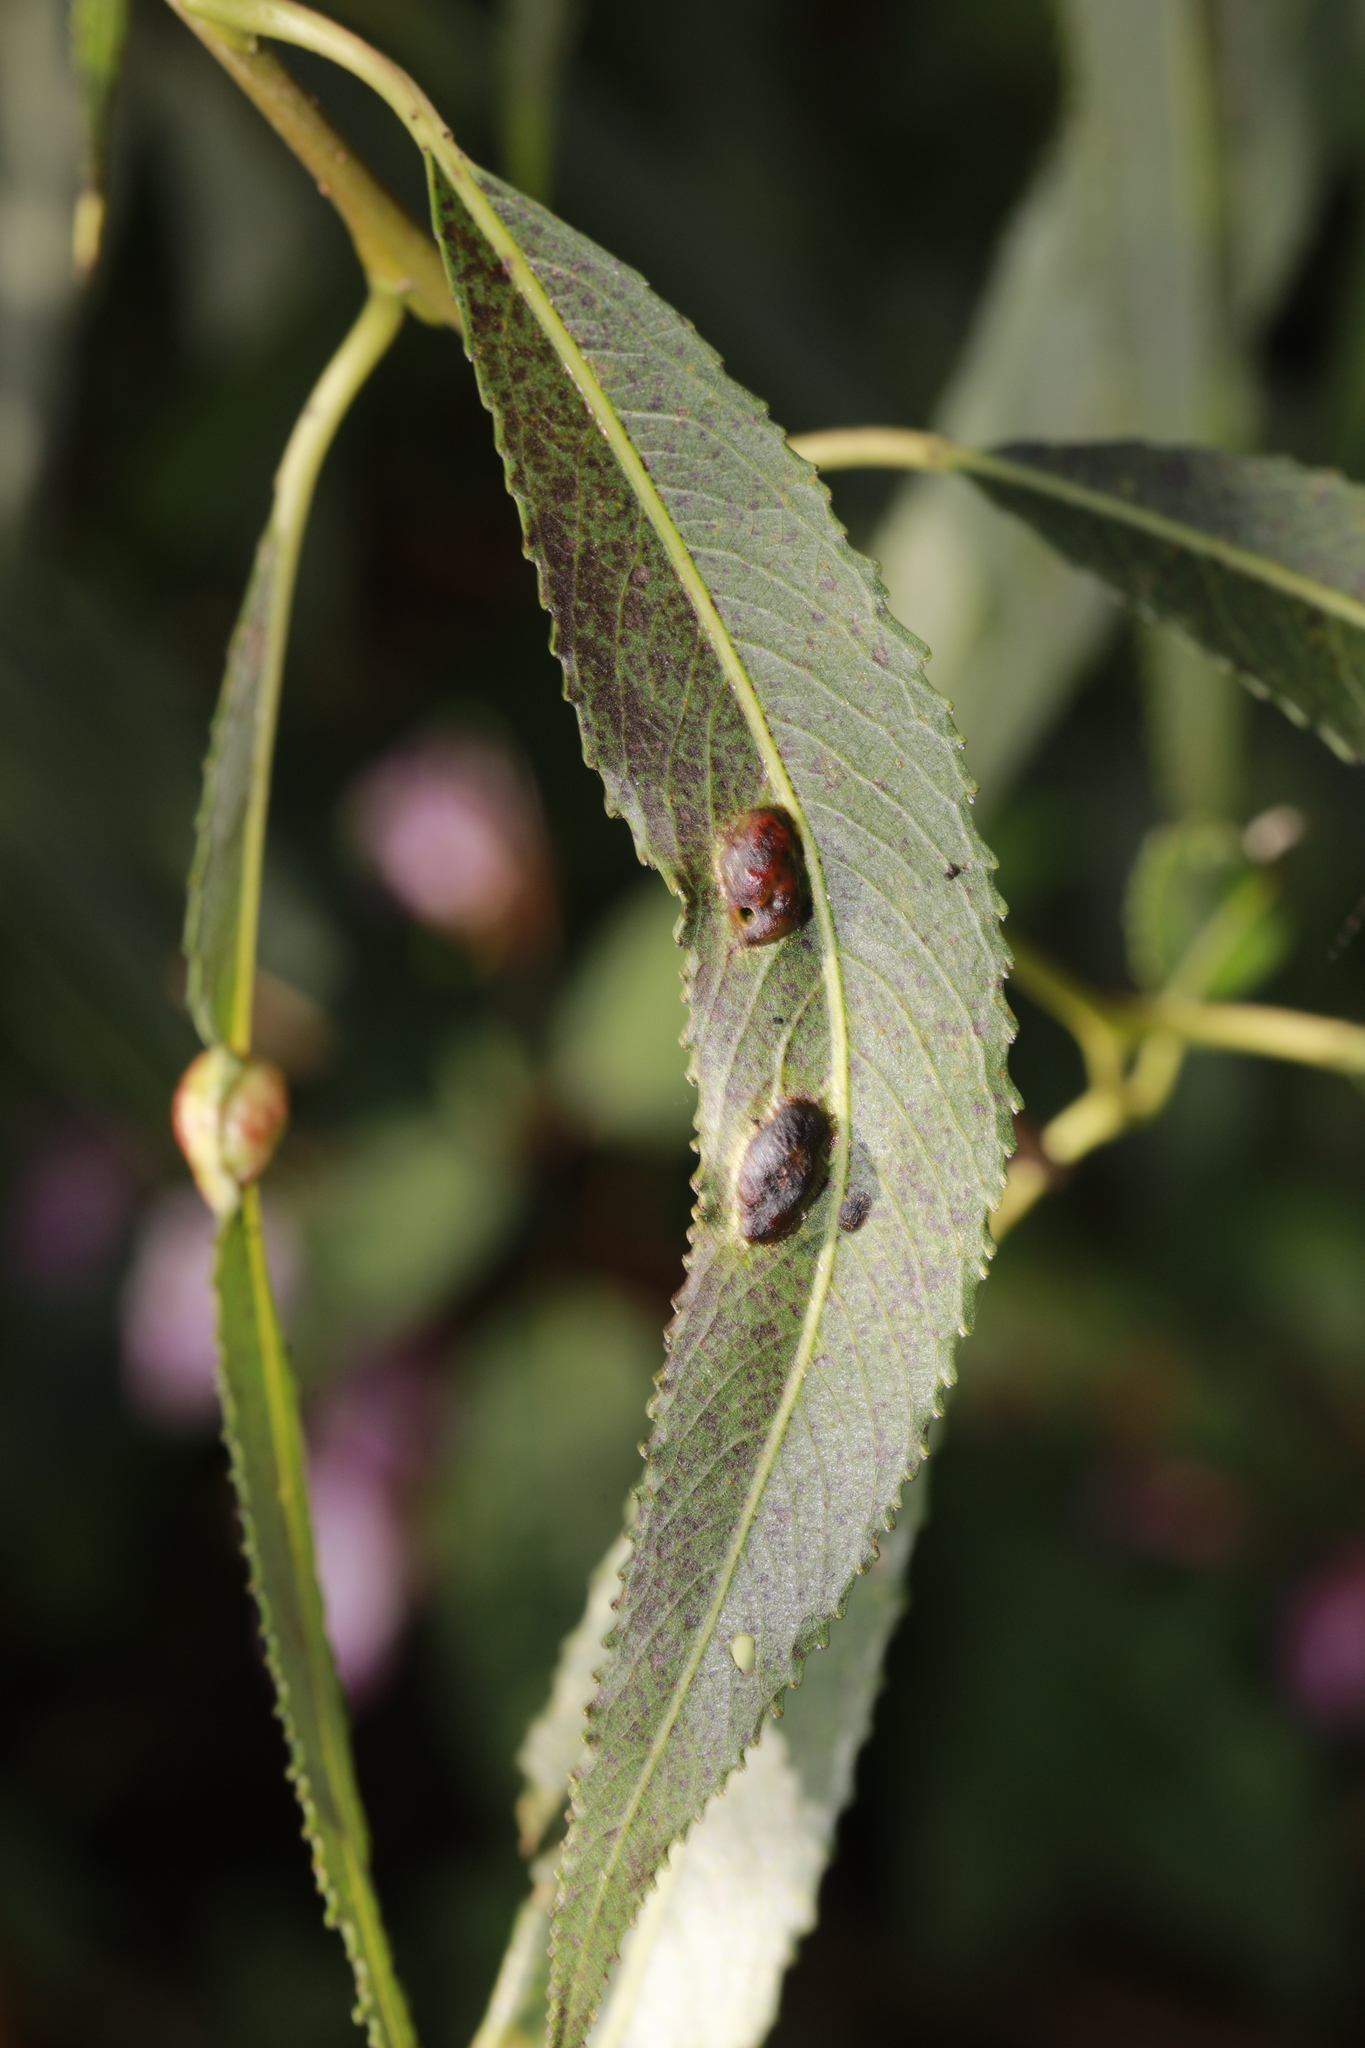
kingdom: Animalia
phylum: Arthropoda
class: Insecta
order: Hymenoptera
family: Tenthredinidae
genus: Pontania
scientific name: Pontania proxima
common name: Common sawfly
